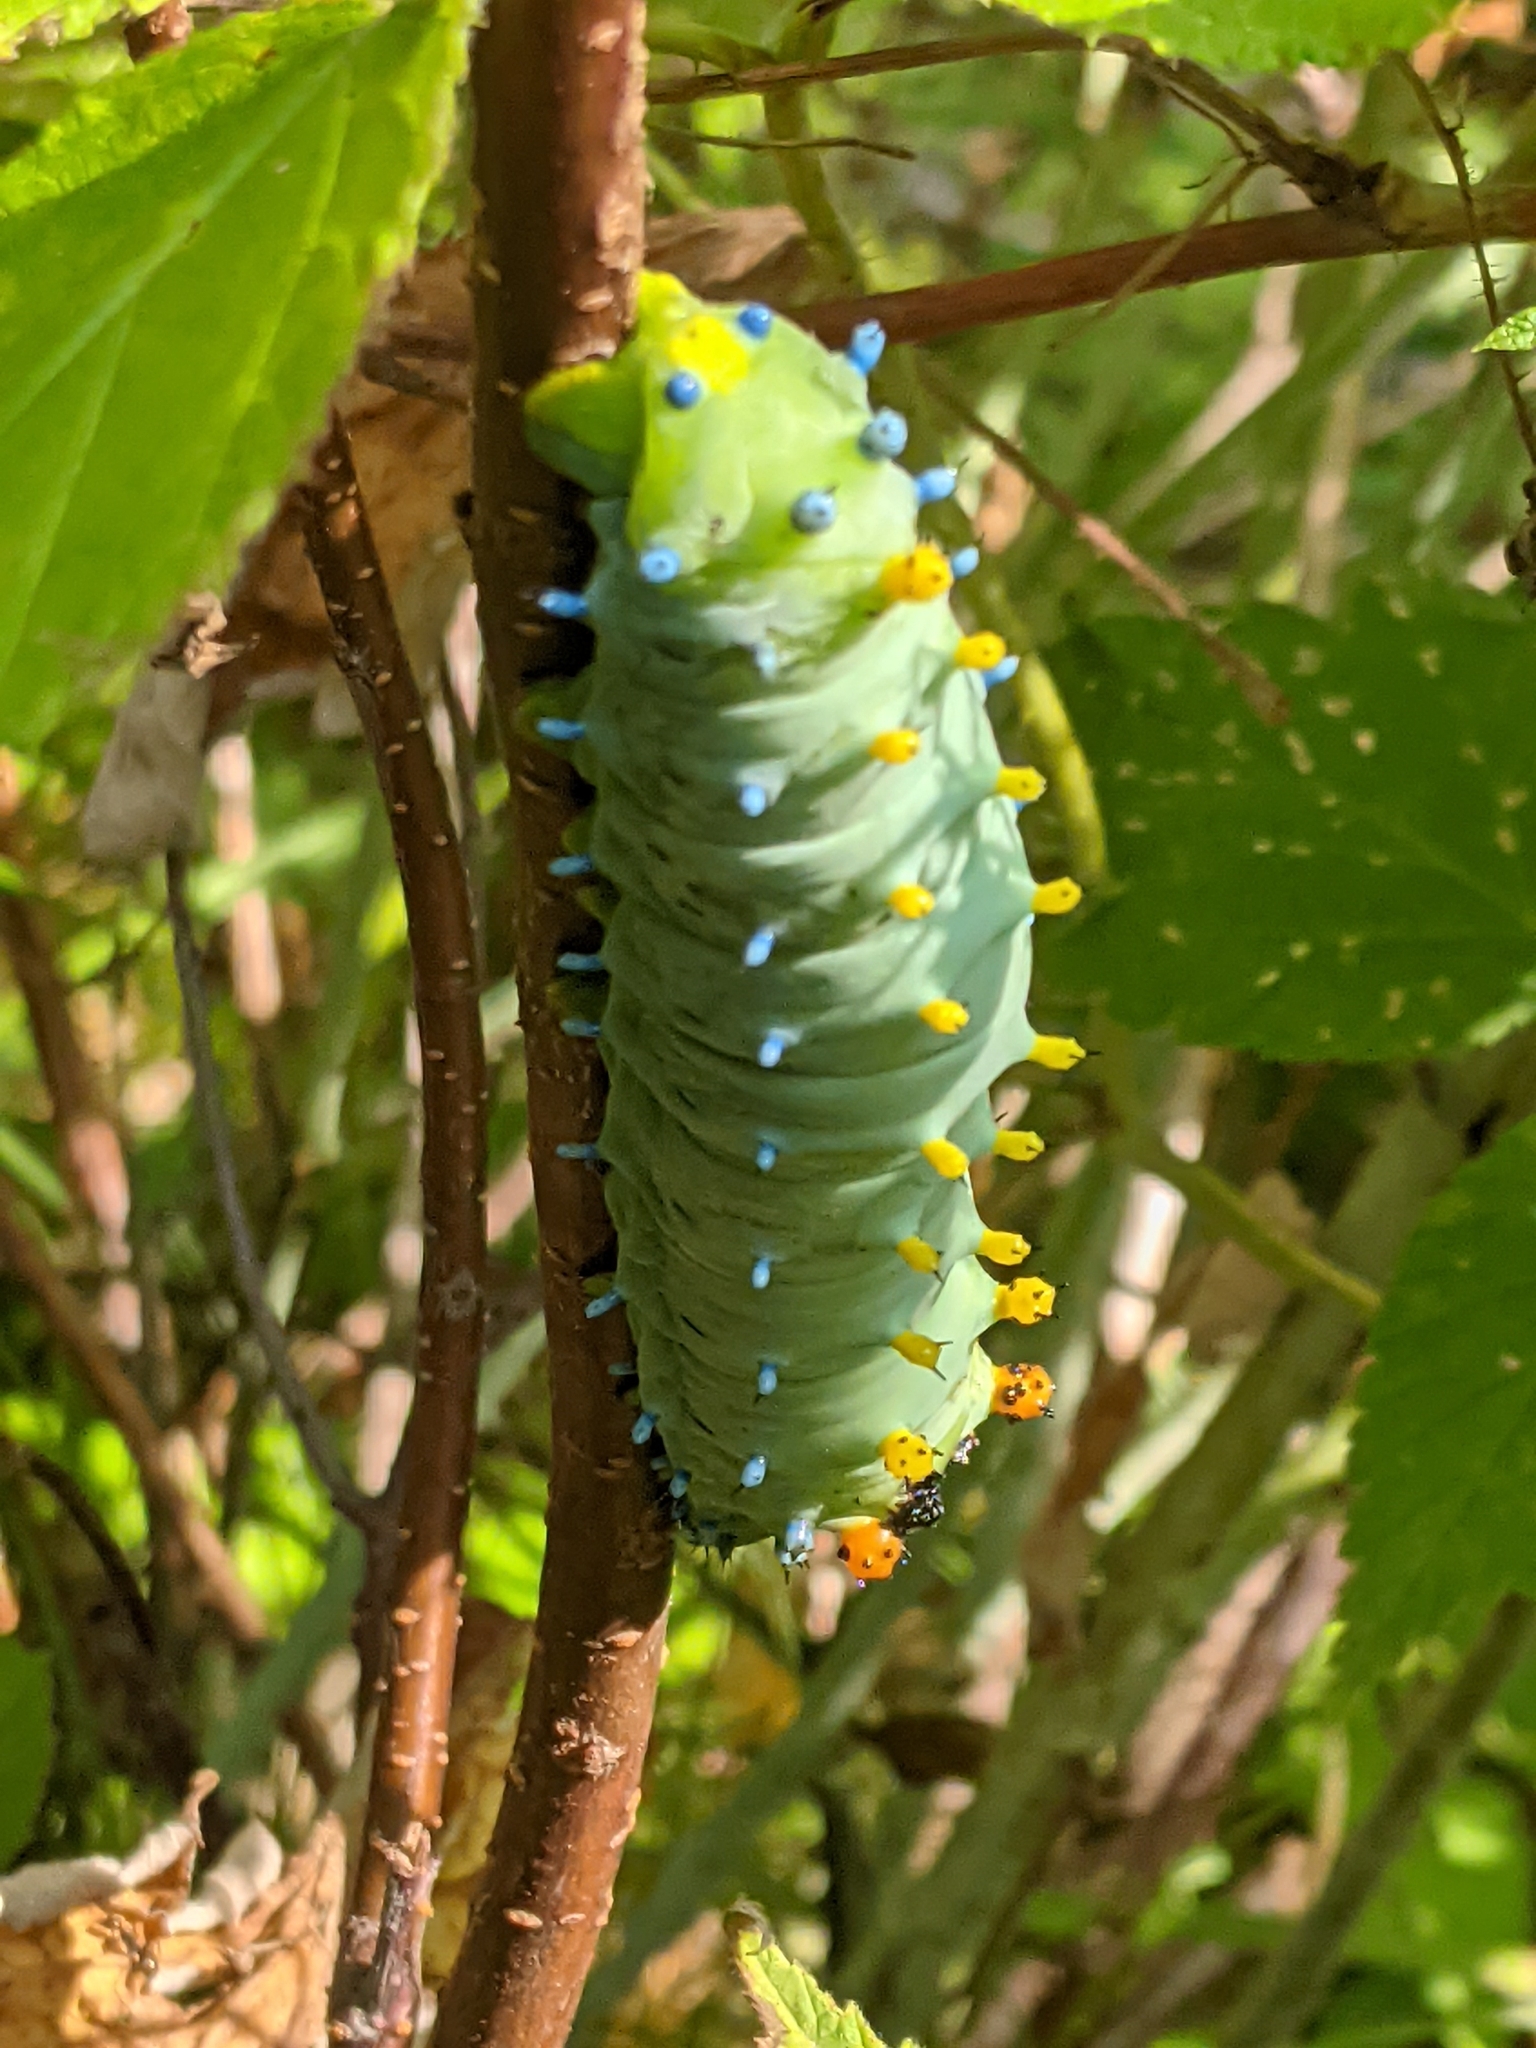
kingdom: Animalia
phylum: Arthropoda
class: Insecta
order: Lepidoptera
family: Saturniidae
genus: Hyalophora
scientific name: Hyalophora cecropia
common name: Cecropia silkmoth
